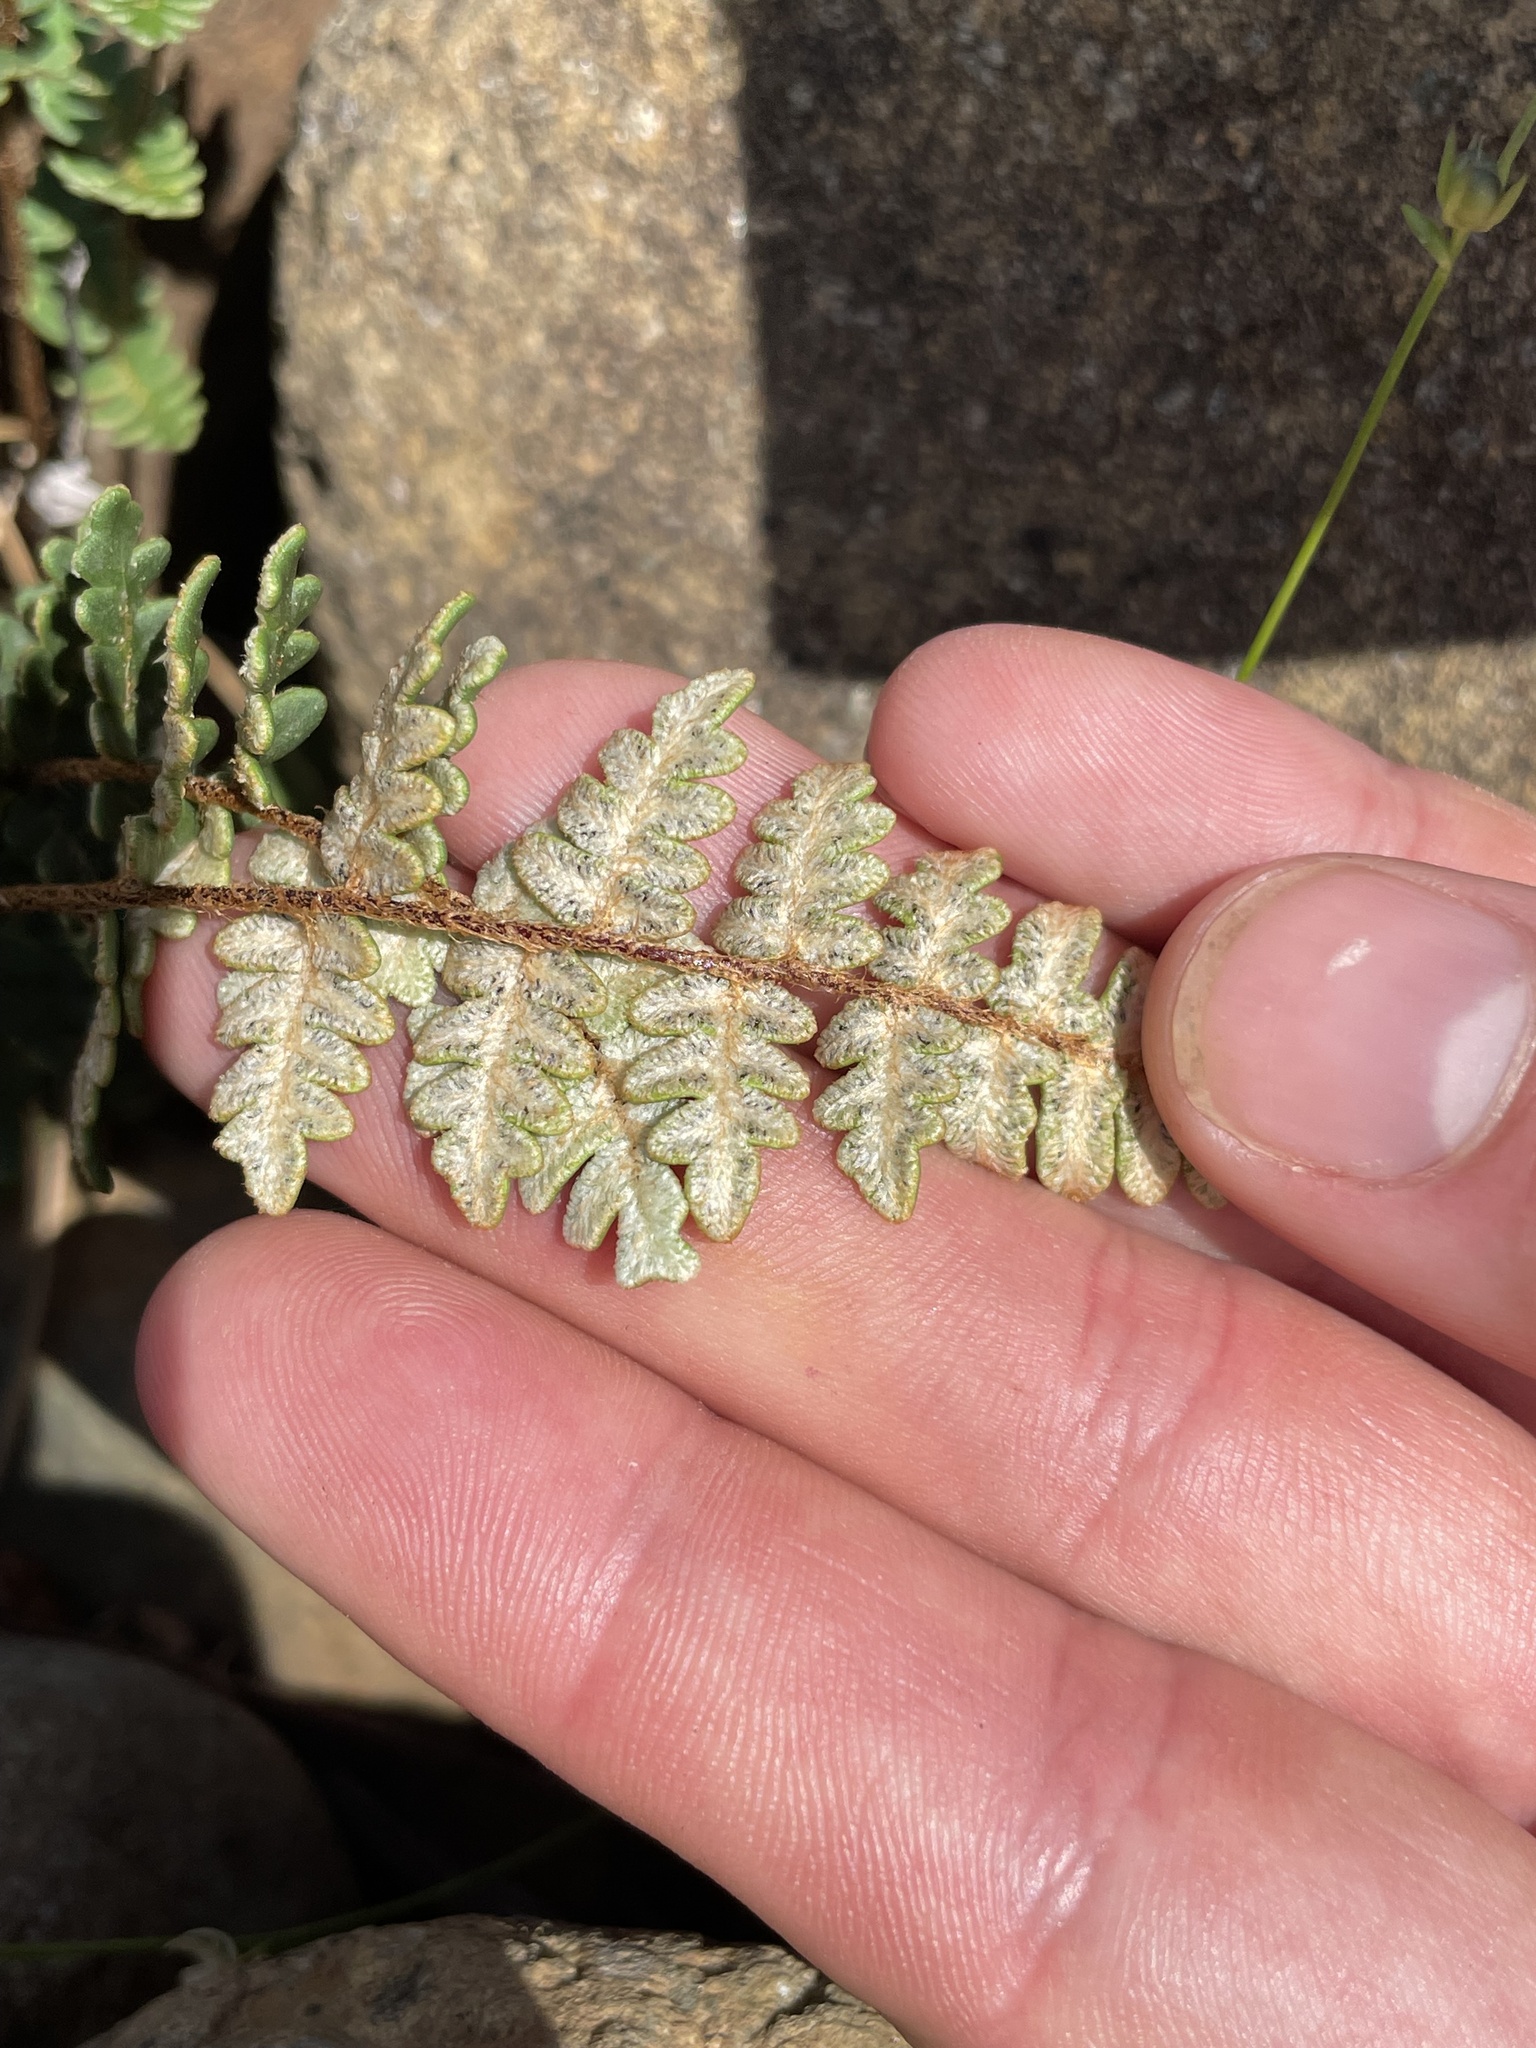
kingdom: Plantae
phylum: Tracheophyta
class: Polypodiopsida
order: Polypodiales
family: Pteridaceae
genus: Paragymnopteris
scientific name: Paragymnopteris marantae
